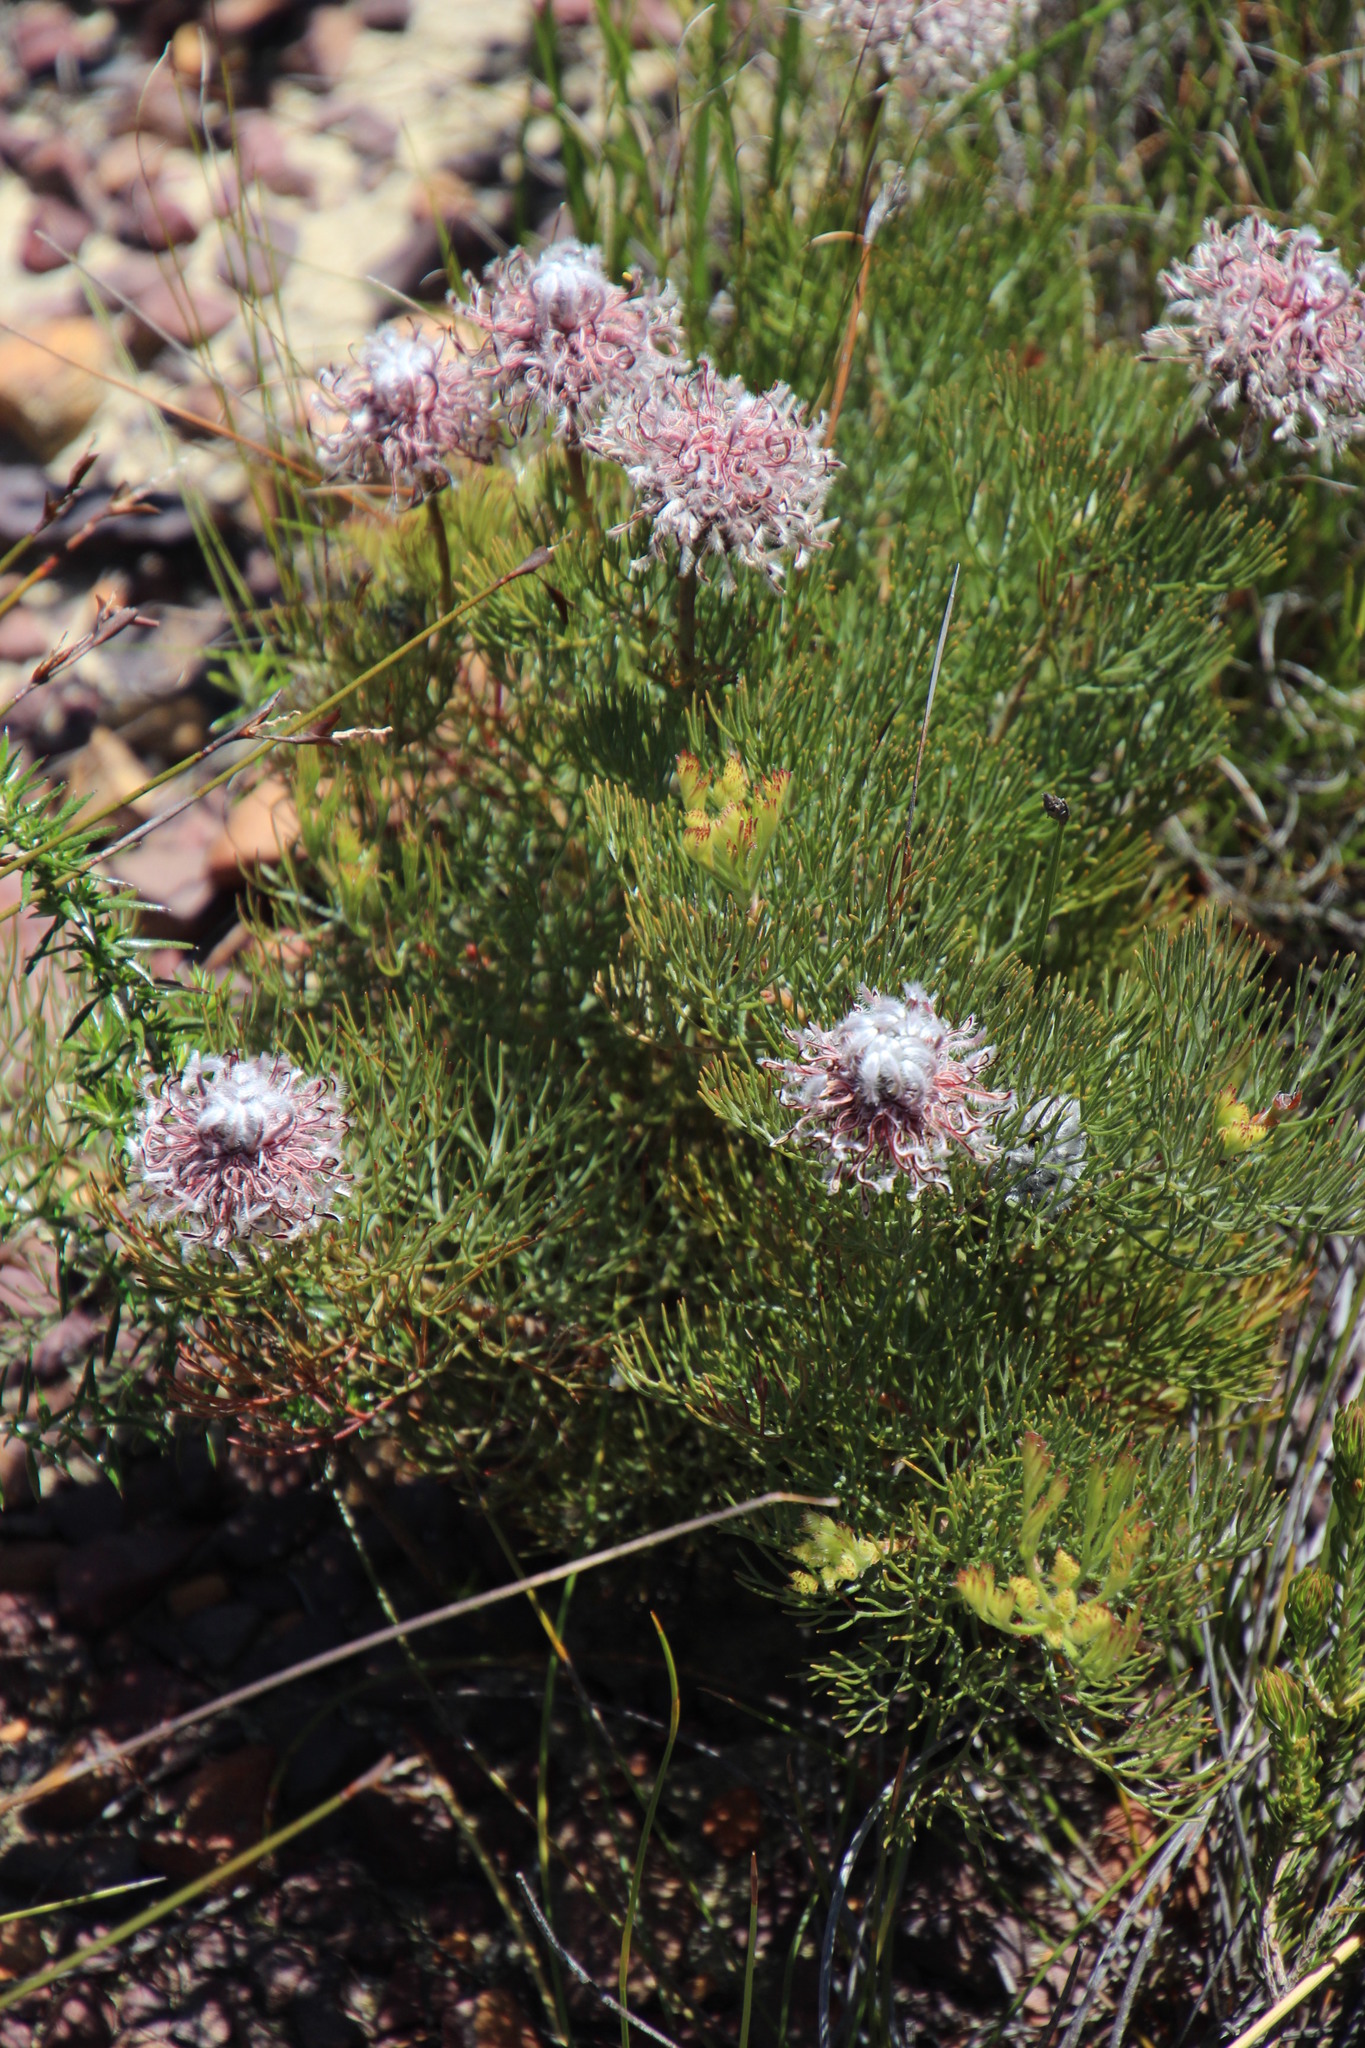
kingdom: Plantae
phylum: Tracheophyta
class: Magnoliopsida
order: Proteales
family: Proteaceae
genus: Serruria
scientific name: Serruria pedunculata
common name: Fan-leaf spiderhead
